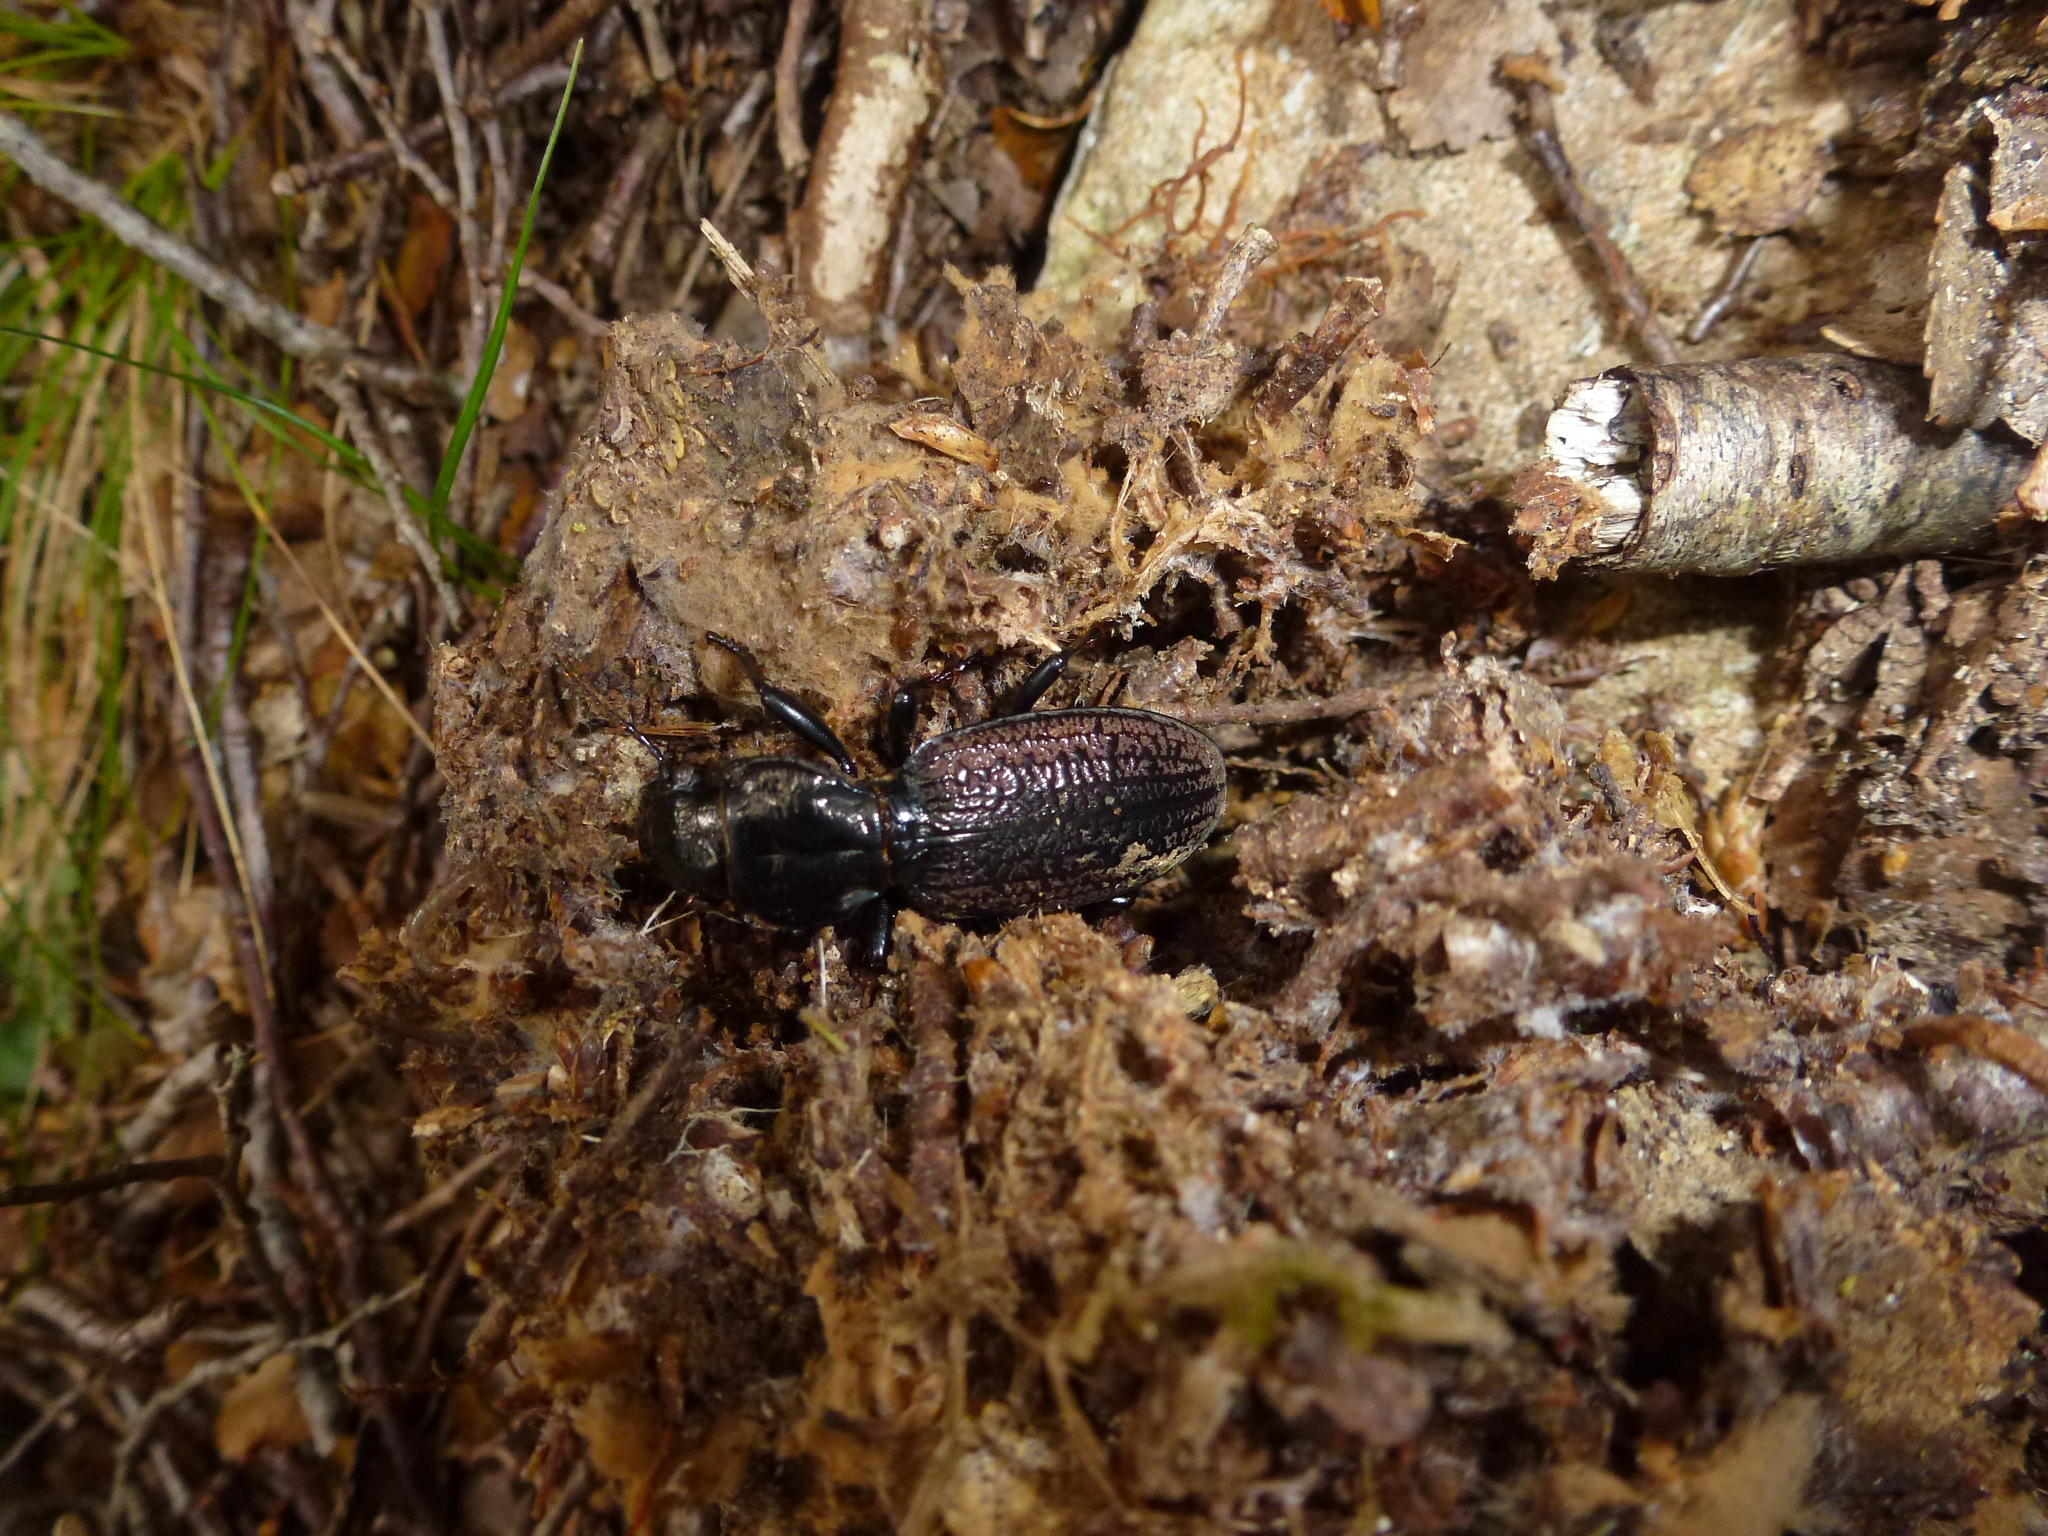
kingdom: Animalia
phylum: Arthropoda
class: Insecta
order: Coleoptera
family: Carabidae
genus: Mecodema
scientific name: Mecodema costellum
